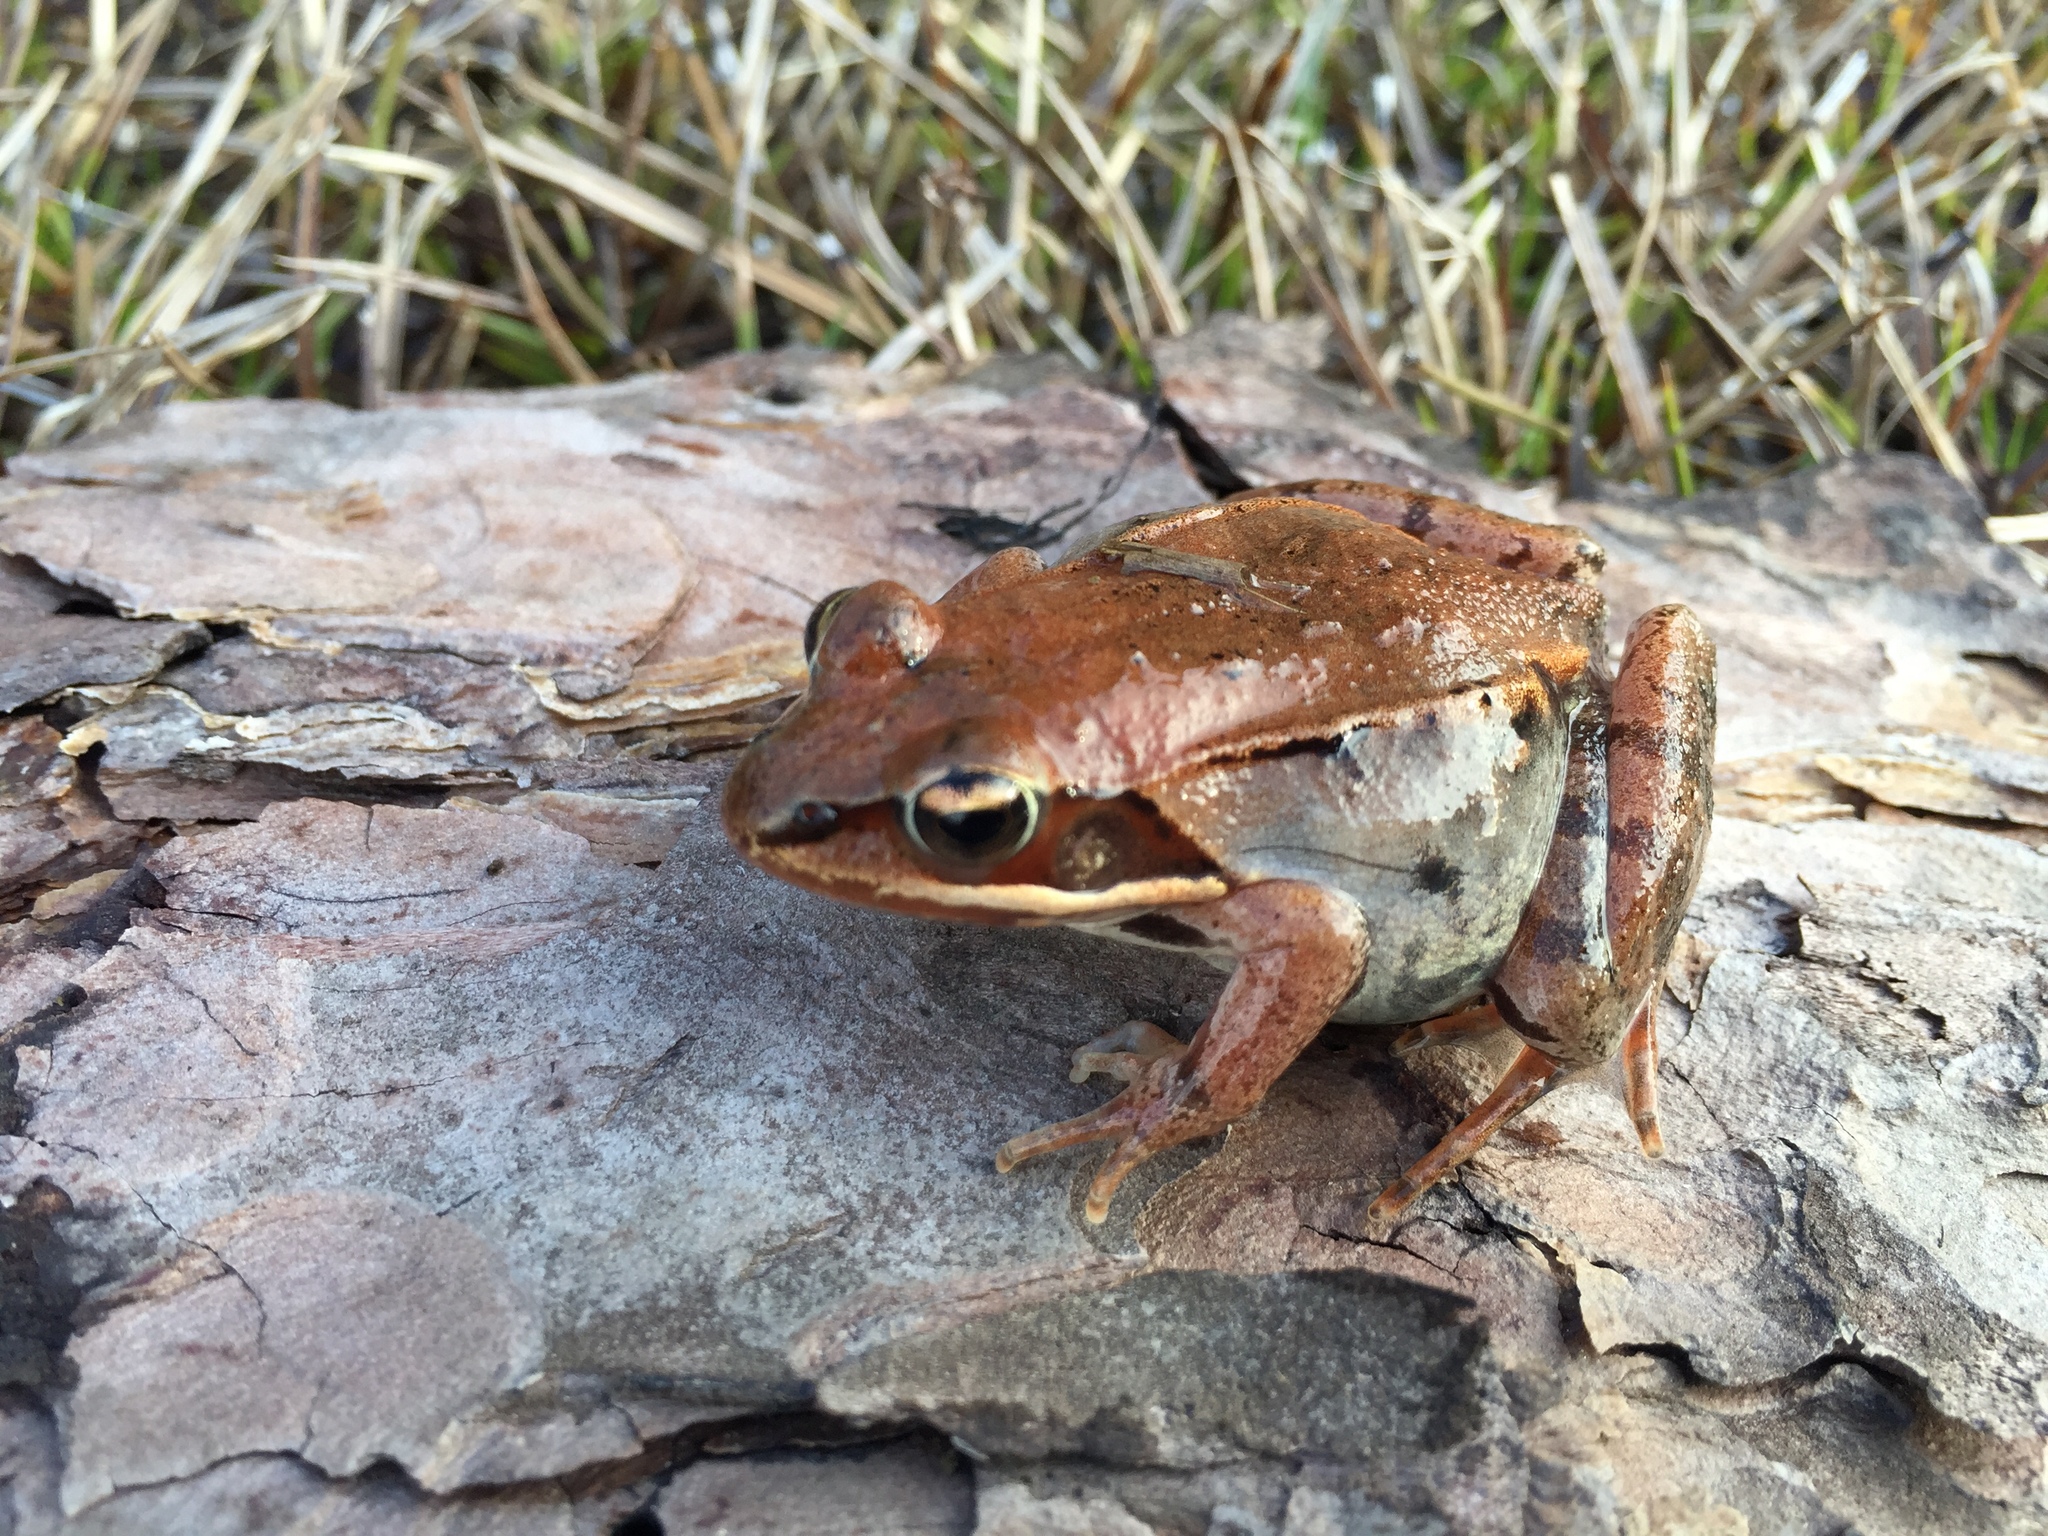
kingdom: Animalia
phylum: Chordata
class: Amphibia
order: Anura
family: Ranidae
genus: Lithobates
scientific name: Lithobates sylvaticus
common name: Wood frog
